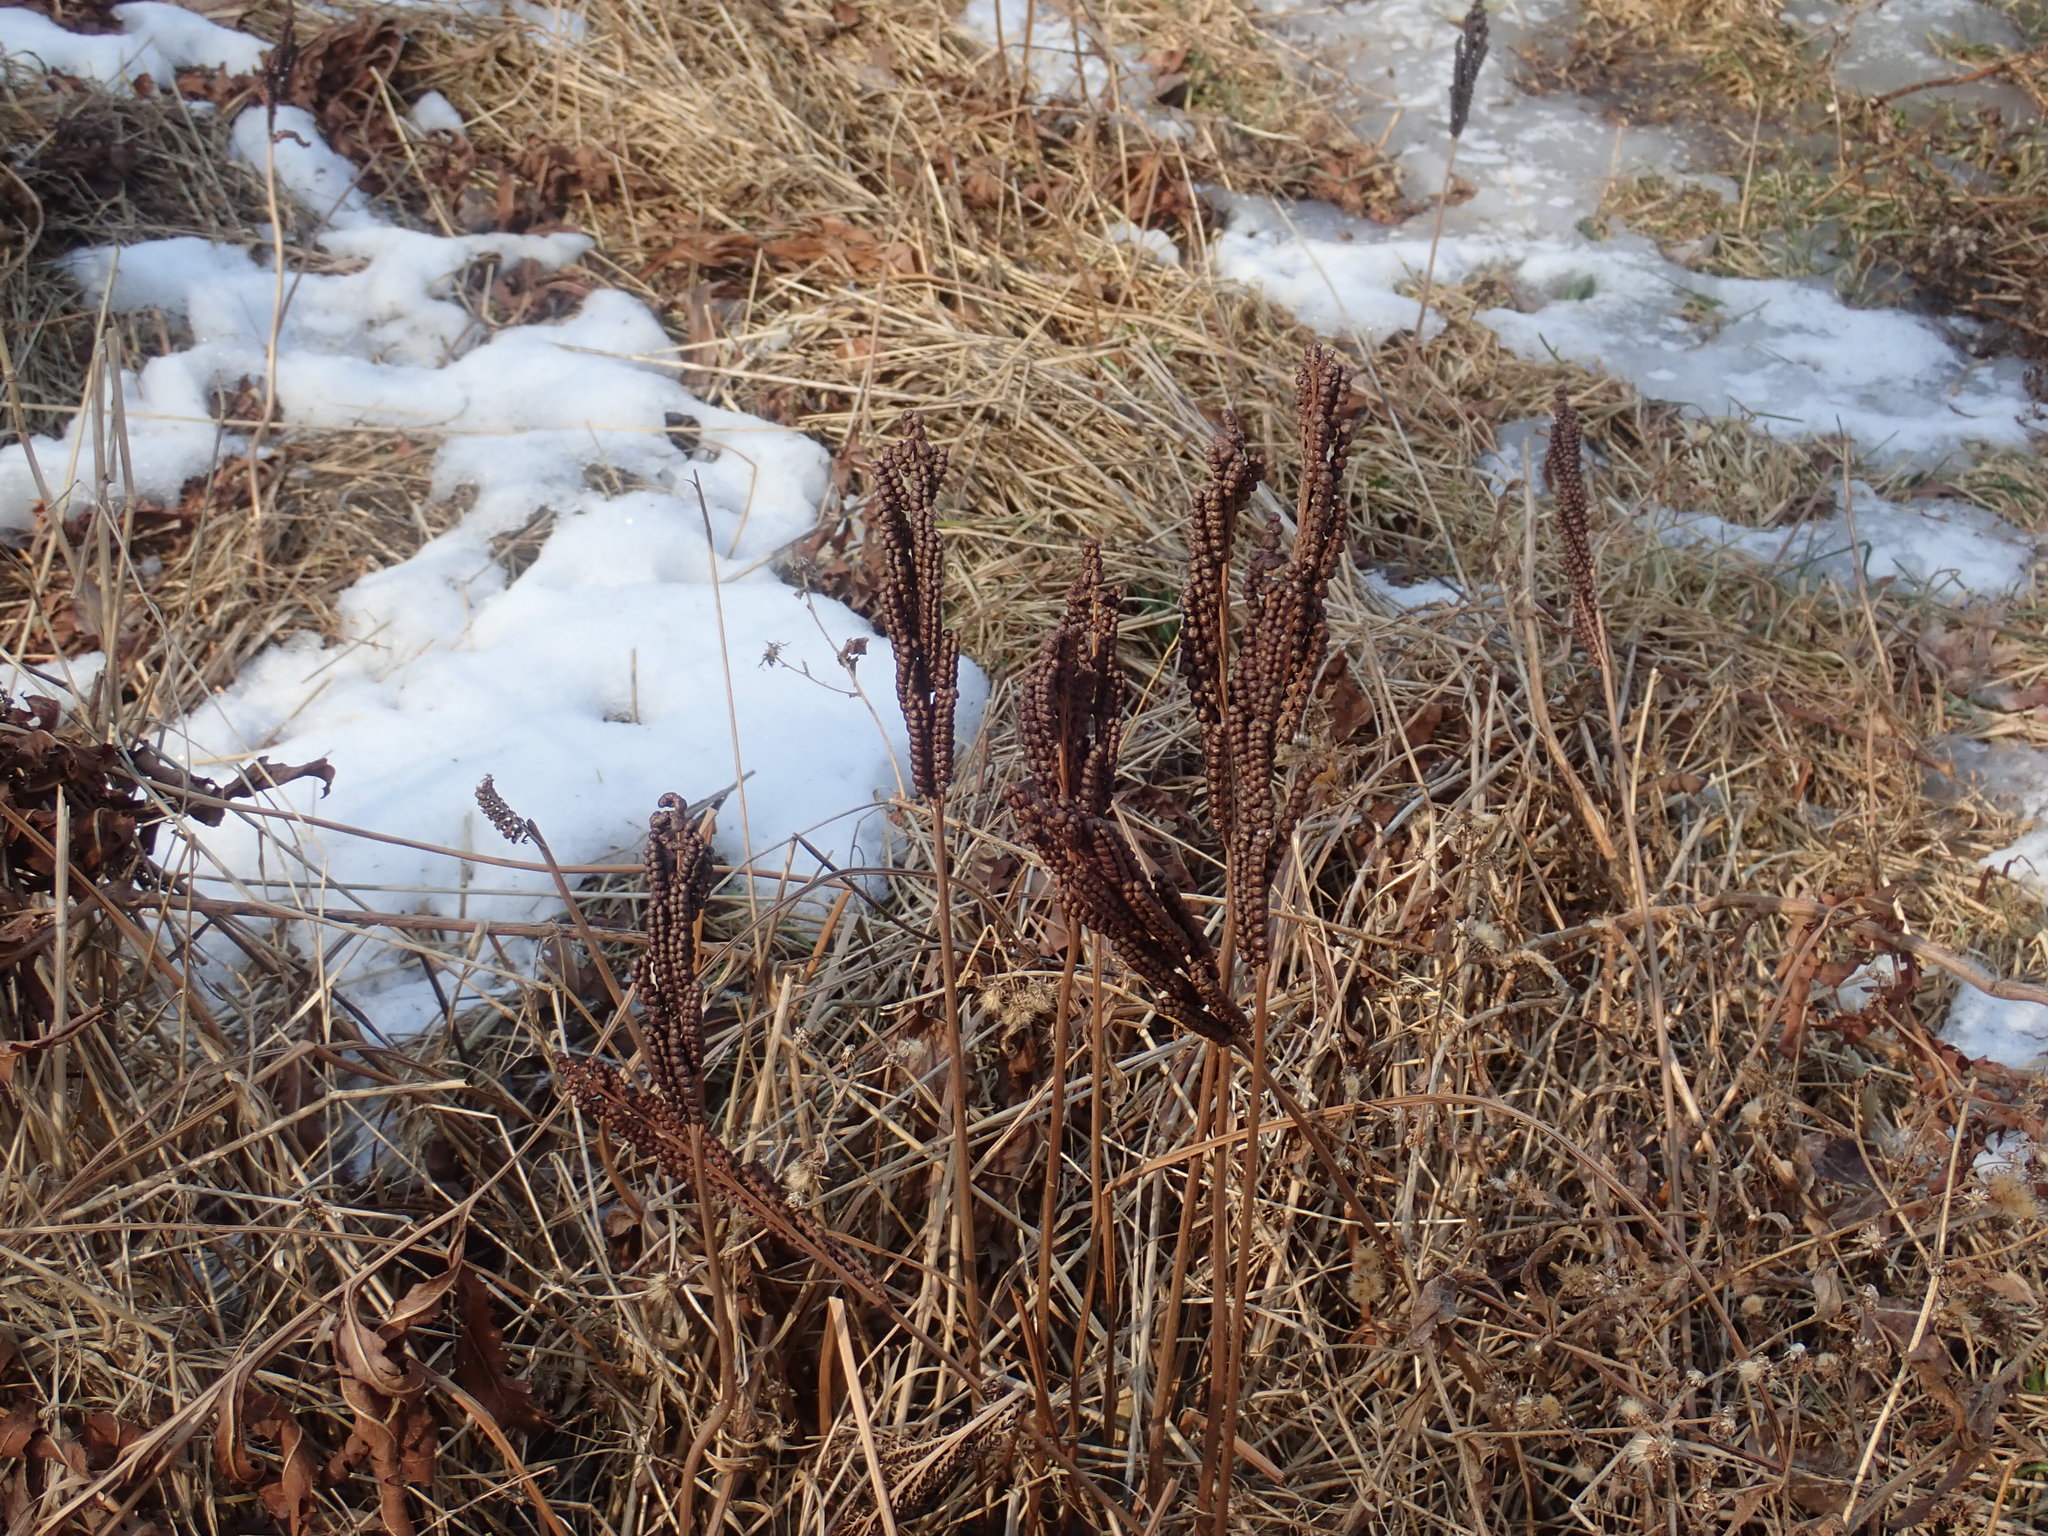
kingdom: Plantae
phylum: Tracheophyta
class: Polypodiopsida
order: Polypodiales
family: Onocleaceae
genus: Onoclea
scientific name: Onoclea sensibilis
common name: Sensitive fern
